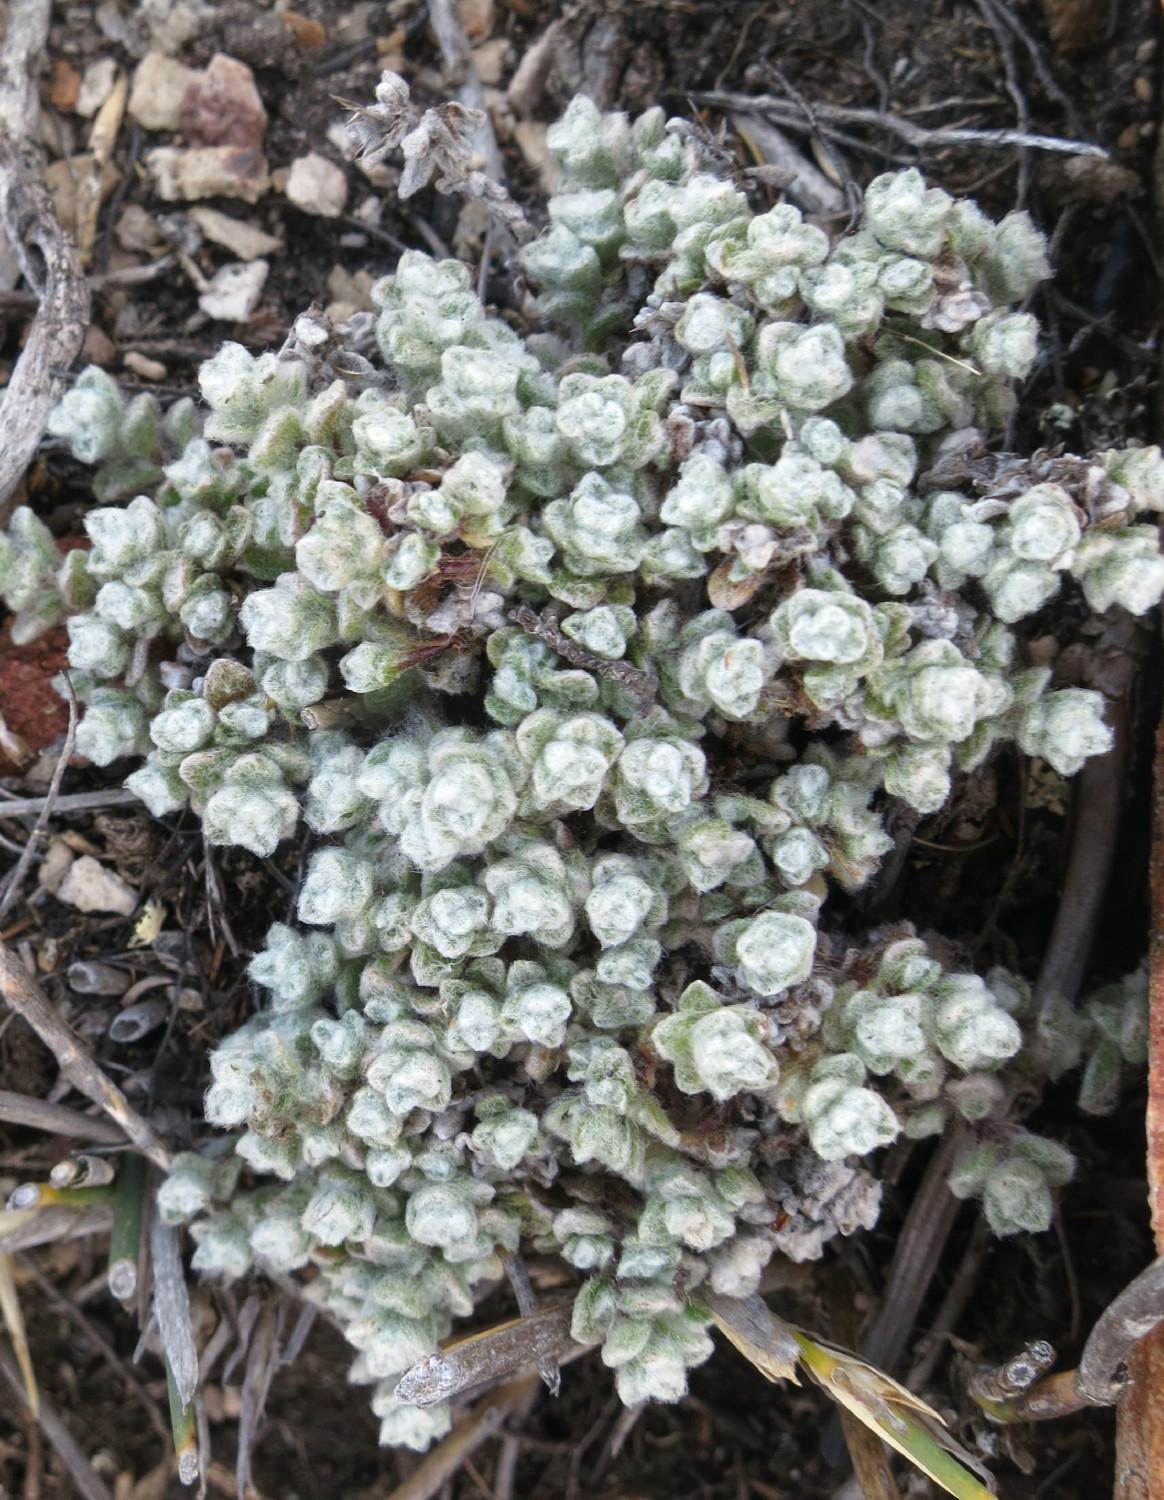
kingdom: Plantae
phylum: Tracheophyta
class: Magnoliopsida
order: Asterales
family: Asteraceae
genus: Helichrysum
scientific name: Helichrysum saxicola
